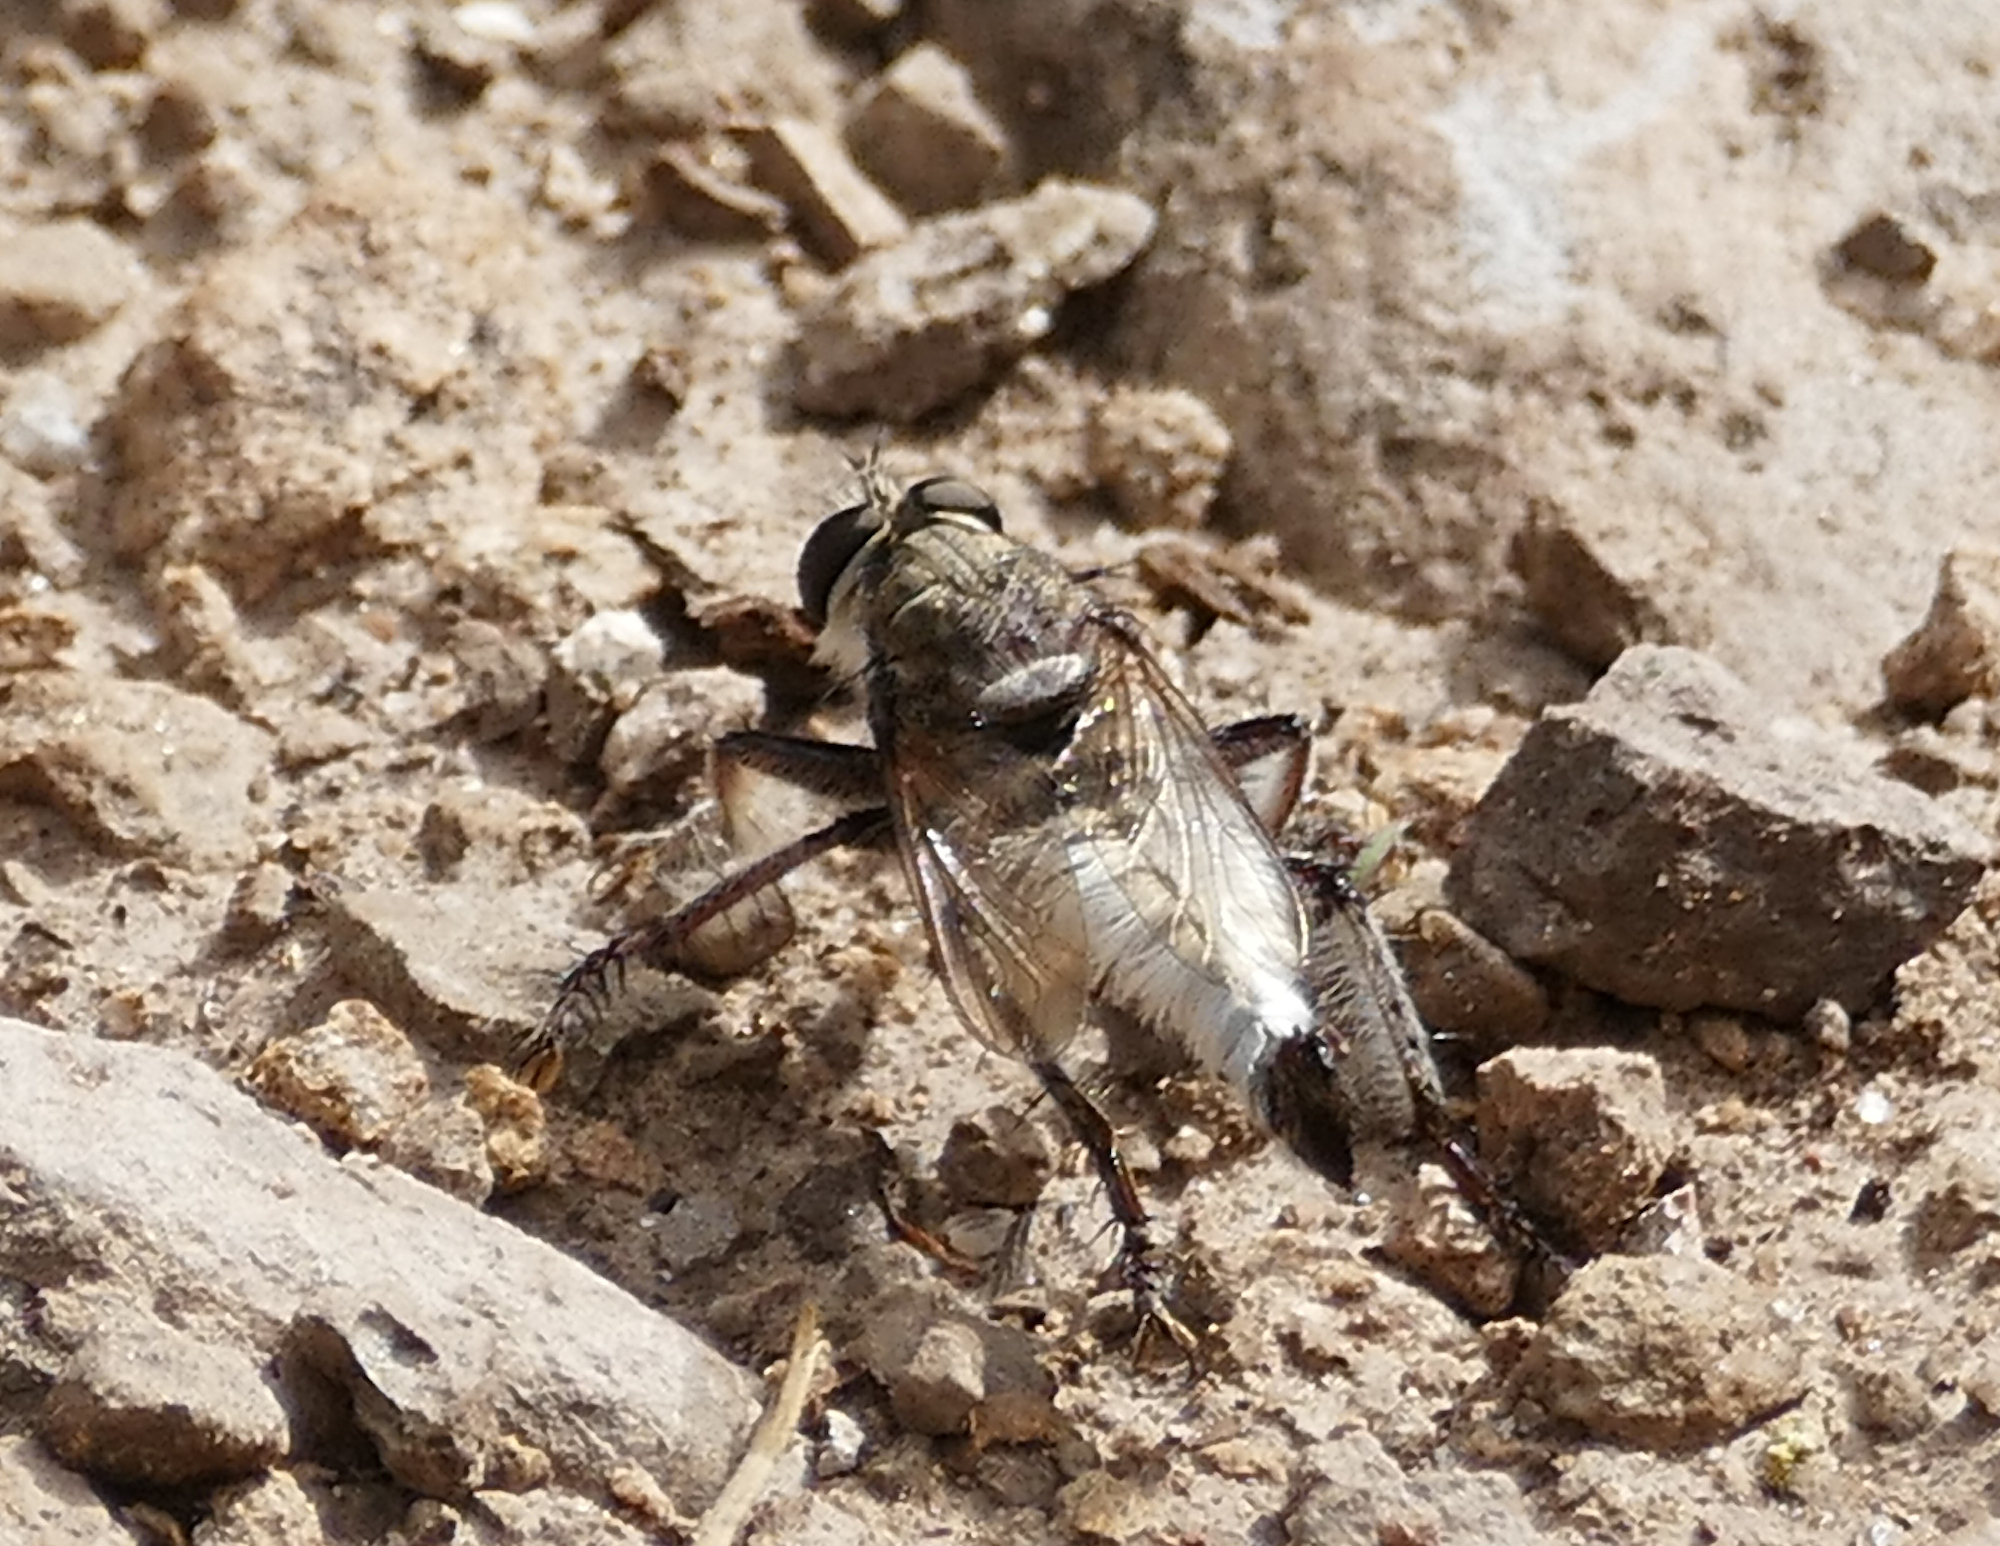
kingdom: Animalia
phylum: Arthropoda
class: Insecta
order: Diptera
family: Asilidae
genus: Efferia
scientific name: Efferia
